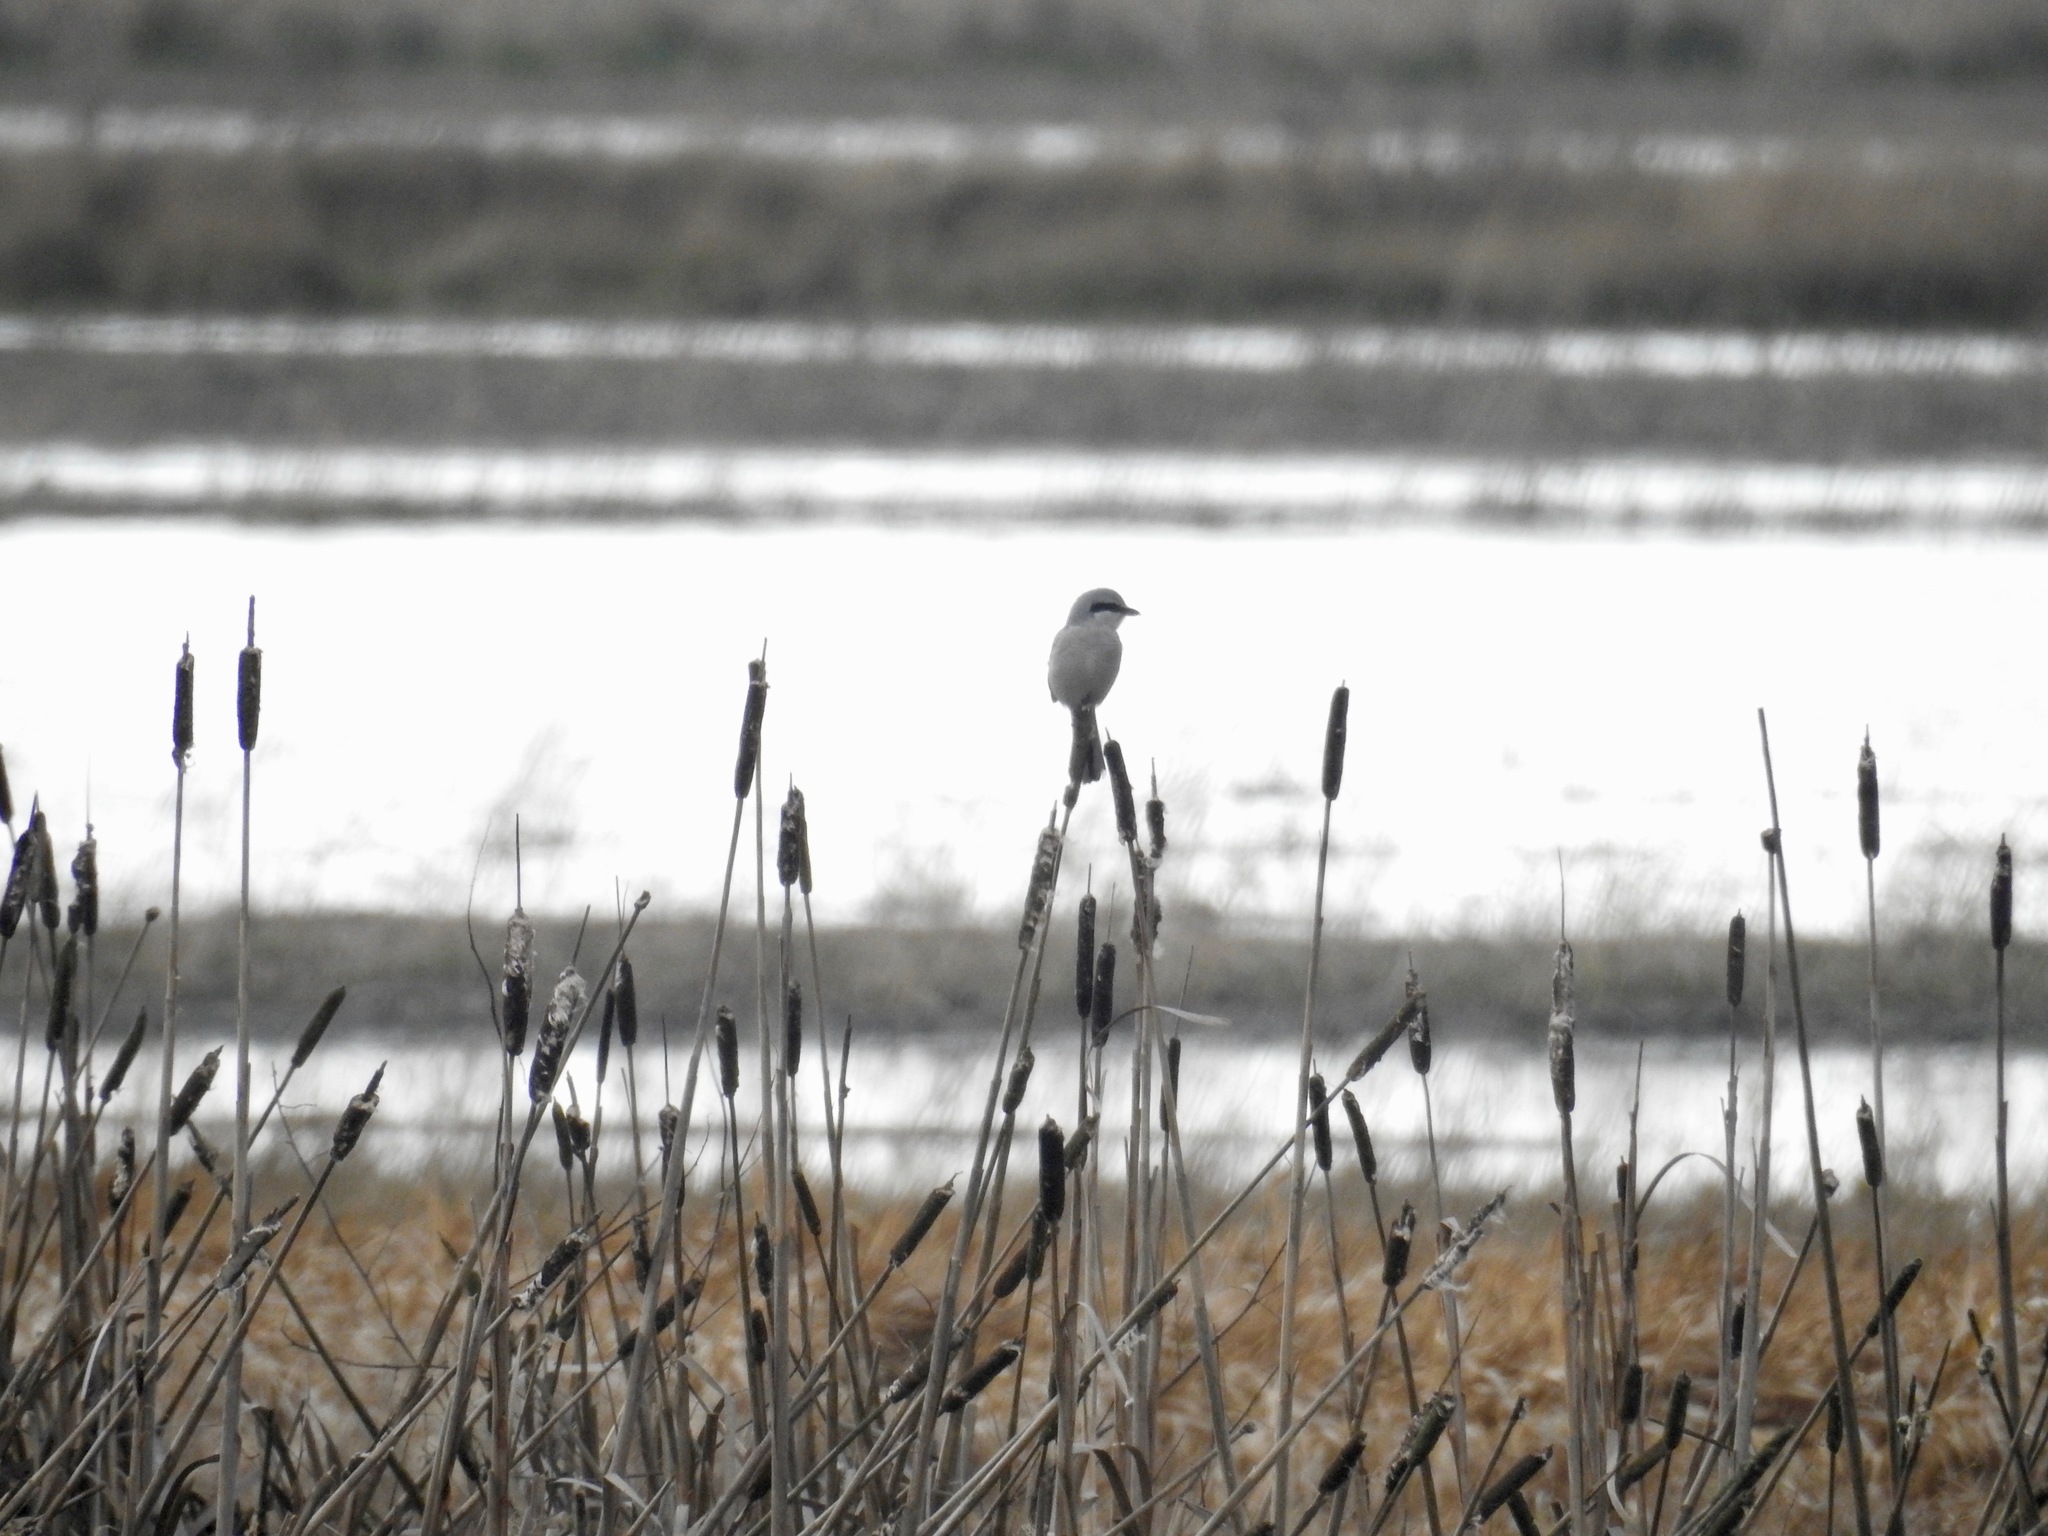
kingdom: Animalia
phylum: Chordata
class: Aves
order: Passeriformes
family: Laniidae
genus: Lanius
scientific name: Lanius borealis
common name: Northern shrike
